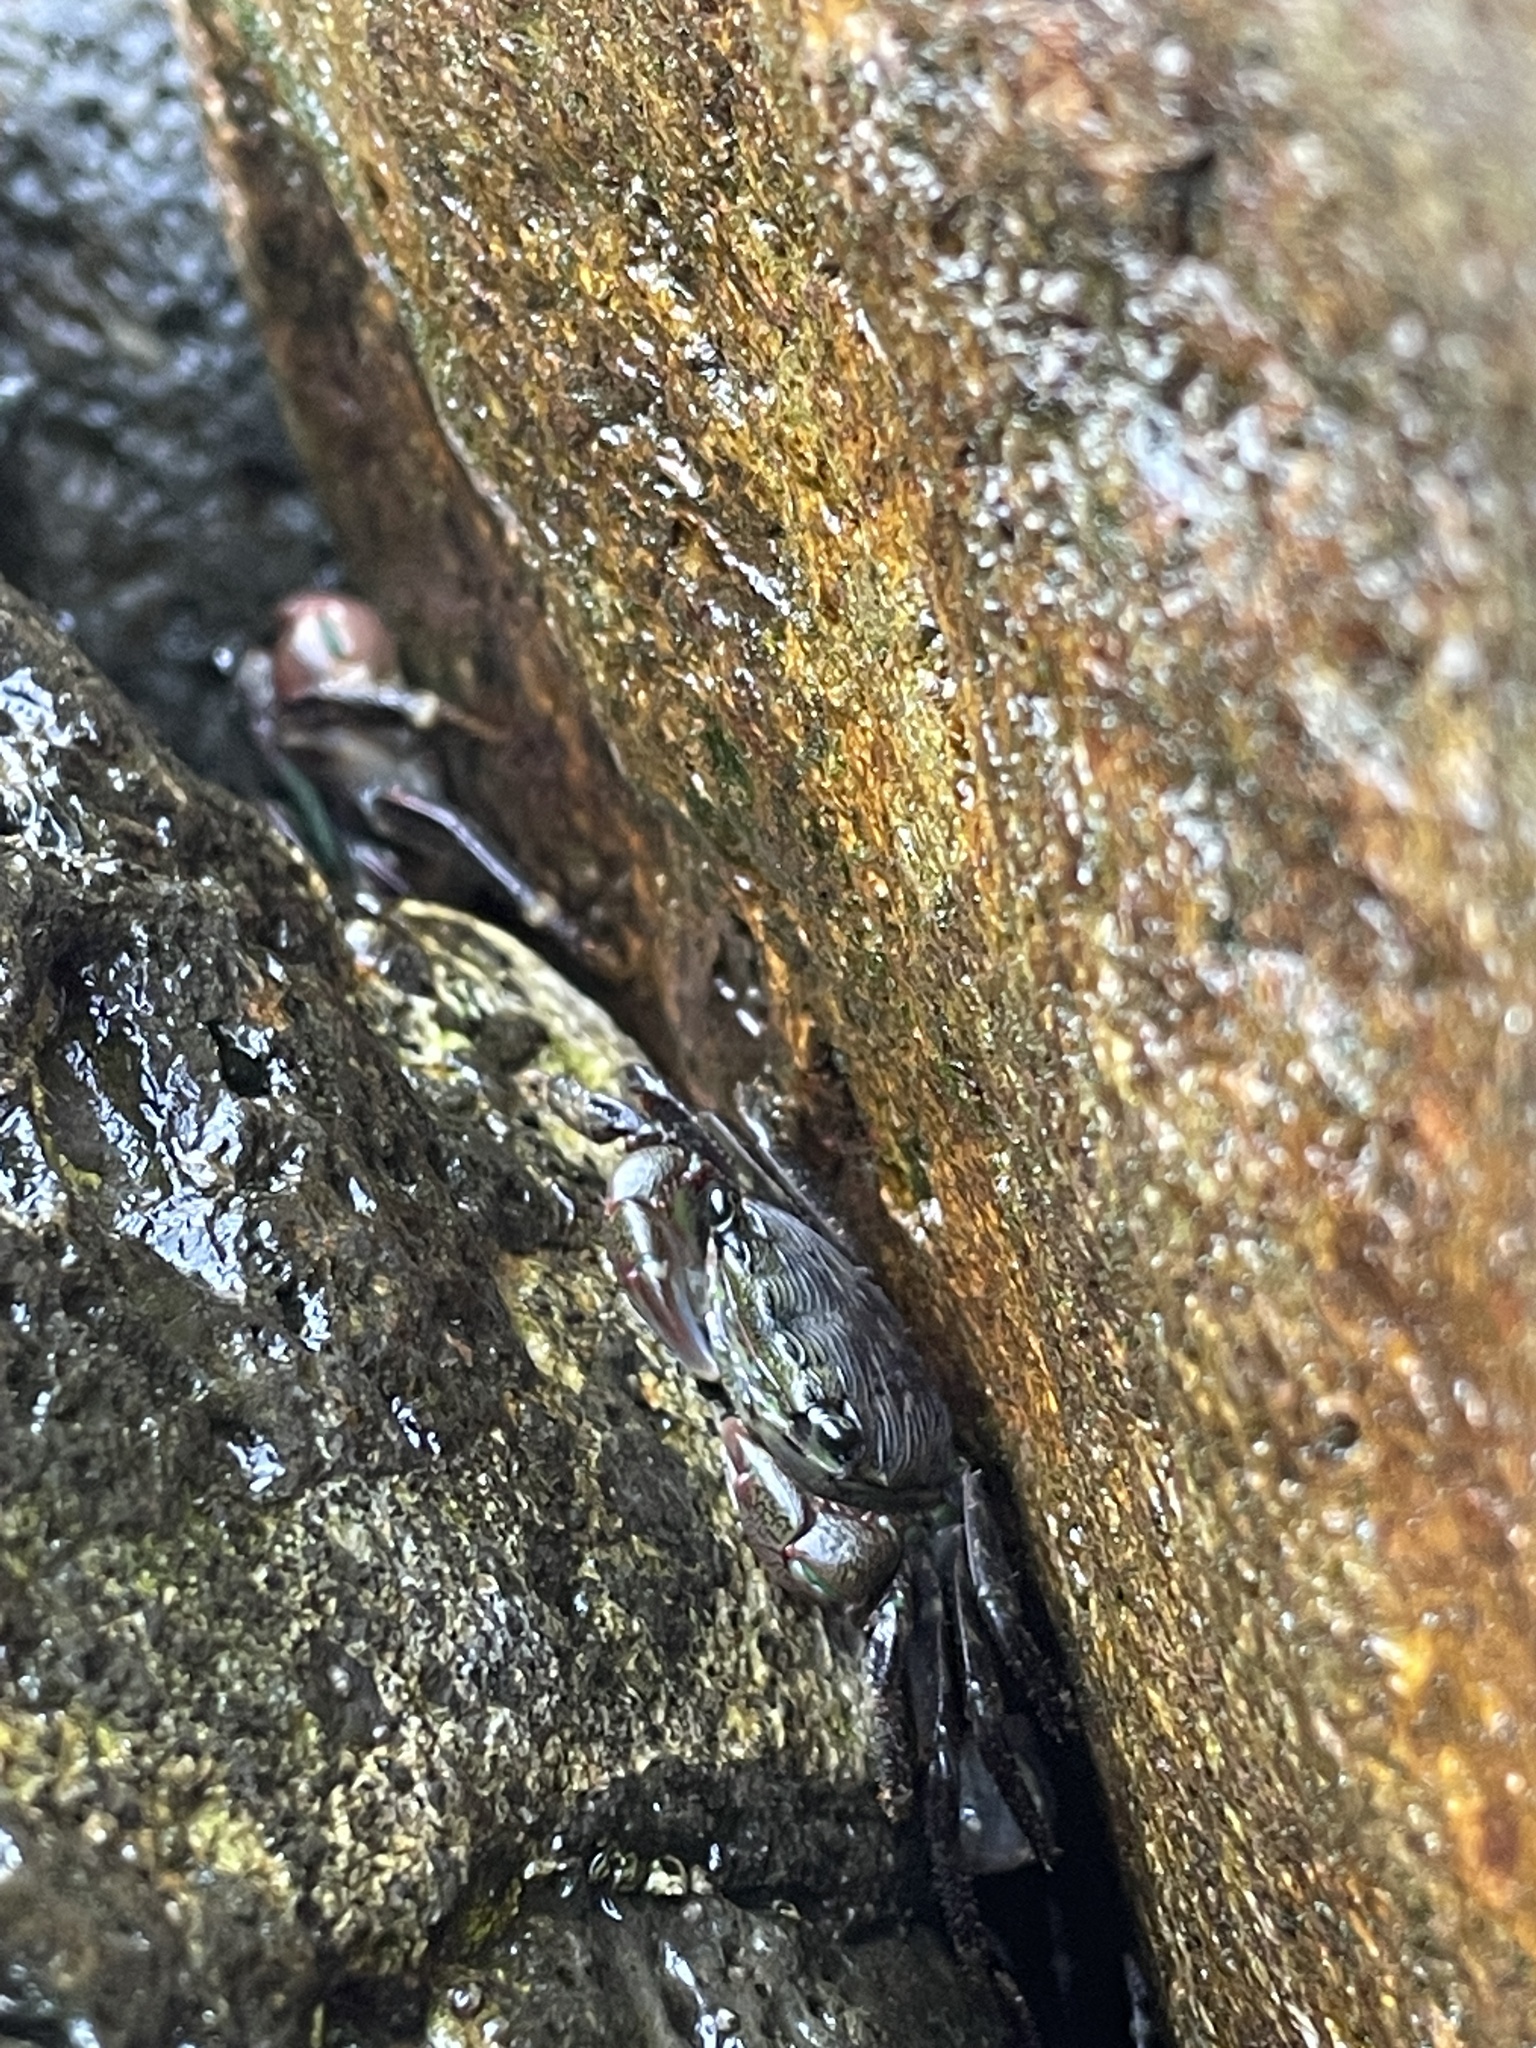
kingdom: Animalia
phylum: Arthropoda
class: Malacostraca
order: Decapoda
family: Grapsidae
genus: Pachygrapsus
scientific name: Pachygrapsus crassipes
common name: Striped shore crab
